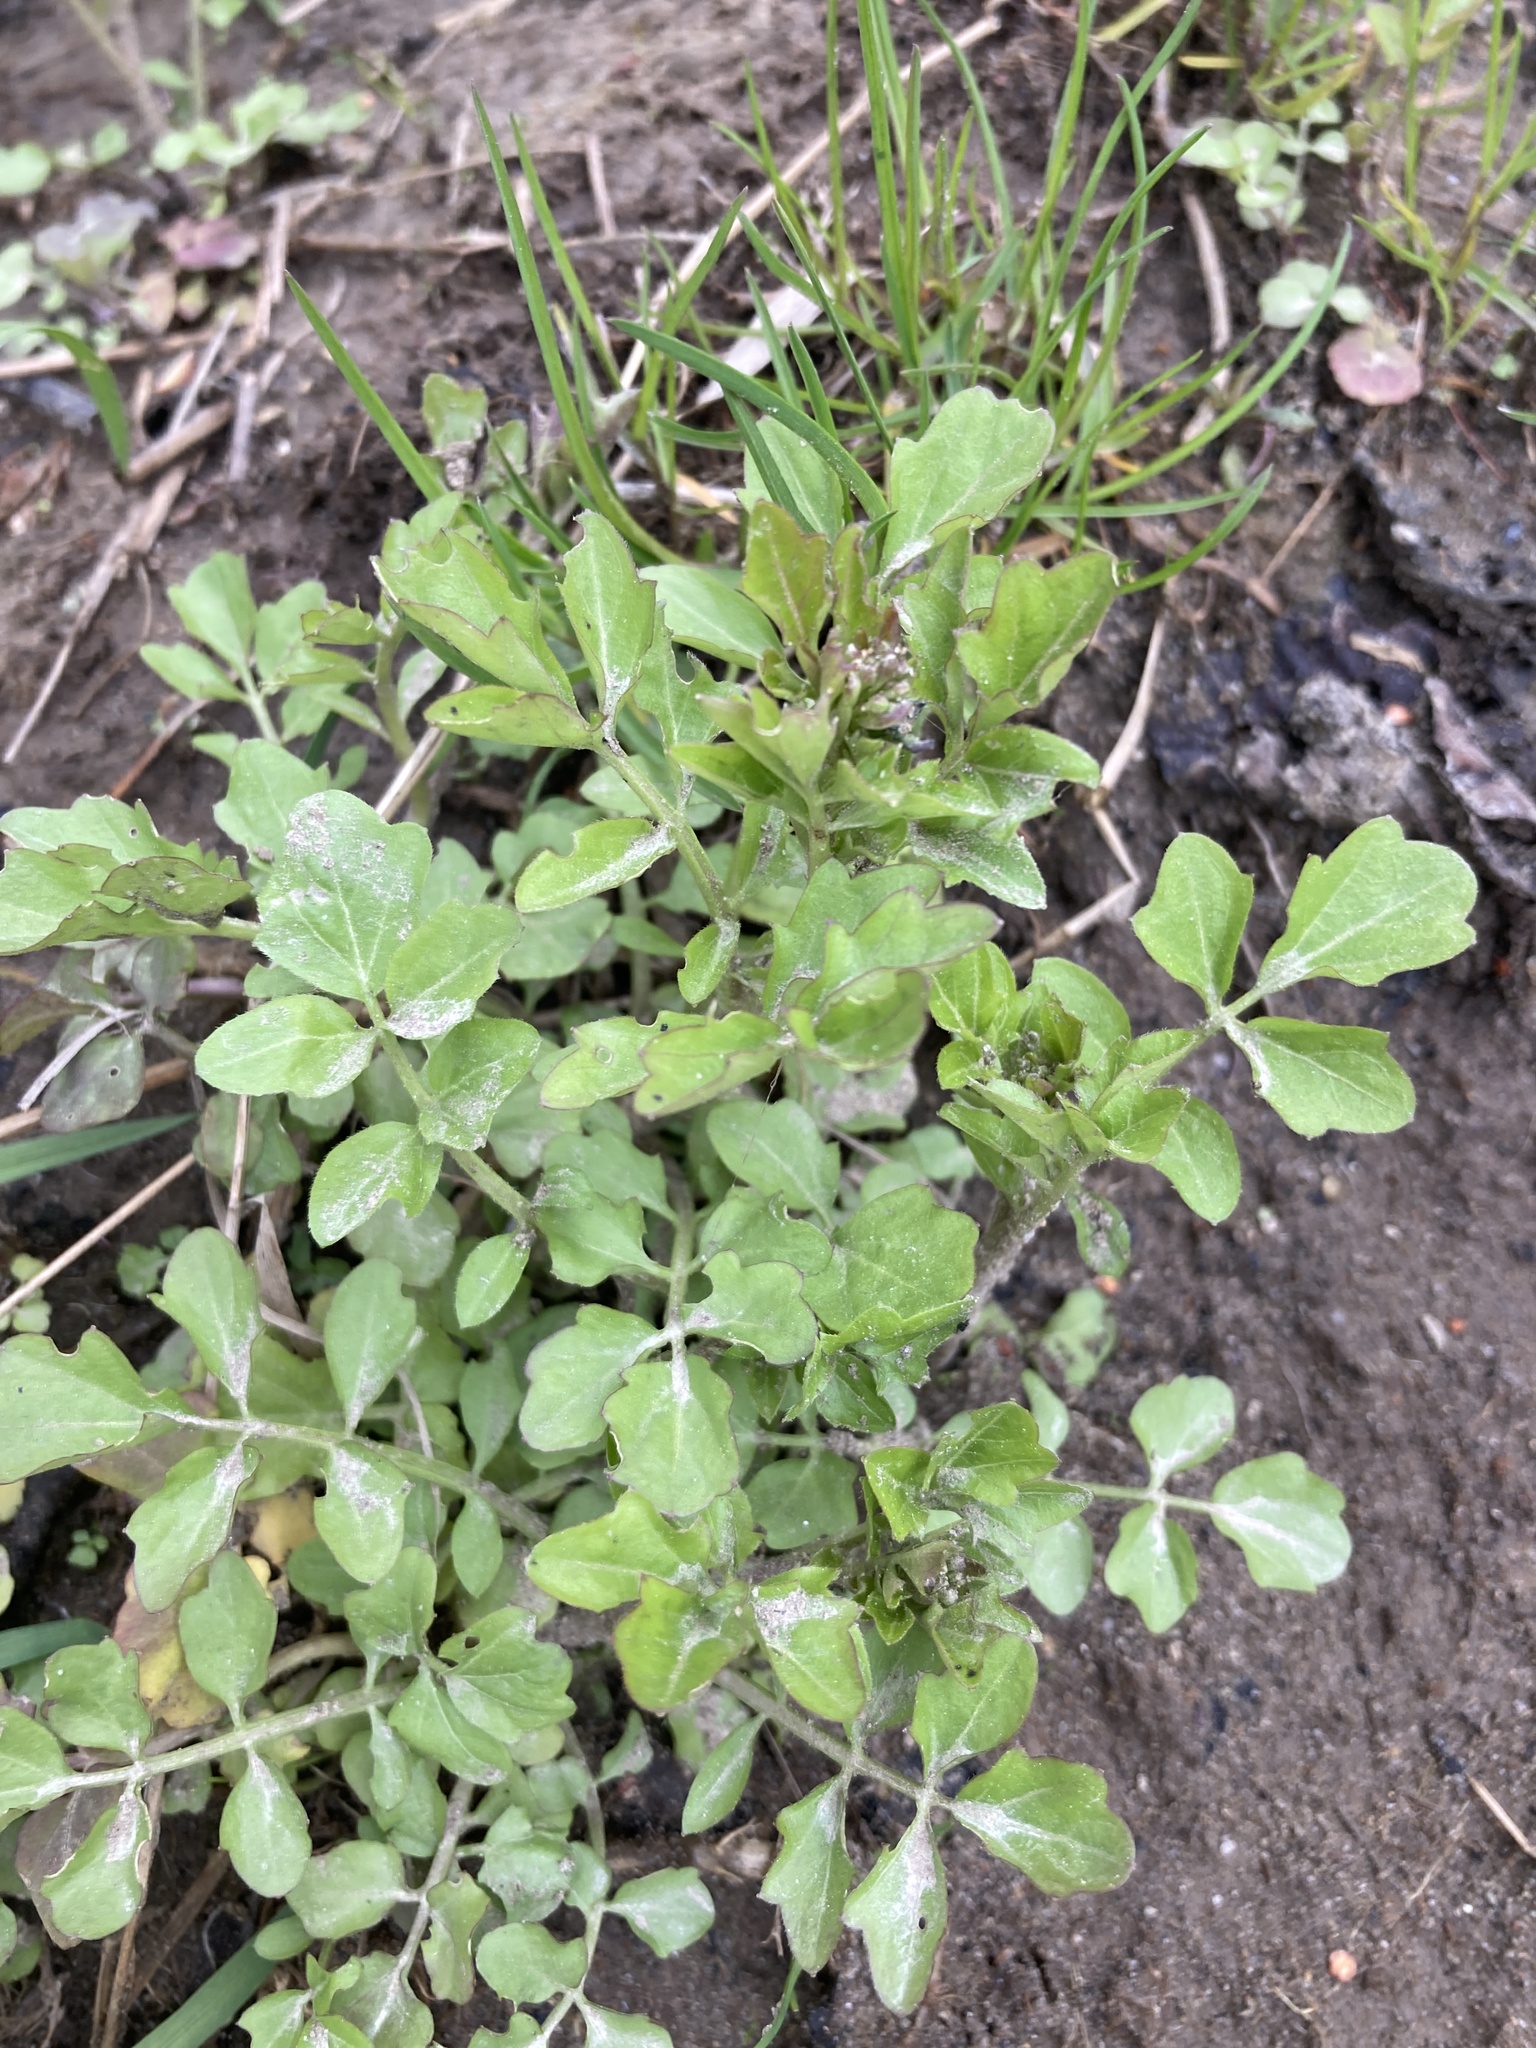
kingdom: Plantae
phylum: Tracheophyta
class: Magnoliopsida
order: Brassicales
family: Brassicaceae
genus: Cardamine
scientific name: Cardamine amara
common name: Large bitter-cress
